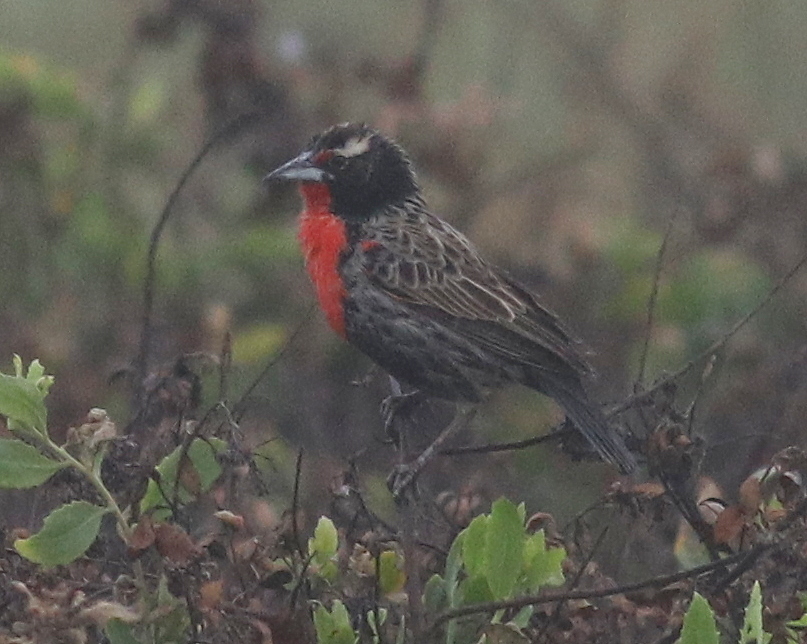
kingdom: Animalia
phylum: Chordata
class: Aves
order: Passeriformes
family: Icteridae
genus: Sturnella
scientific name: Sturnella bellicosa
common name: Peruvian meadowlark
